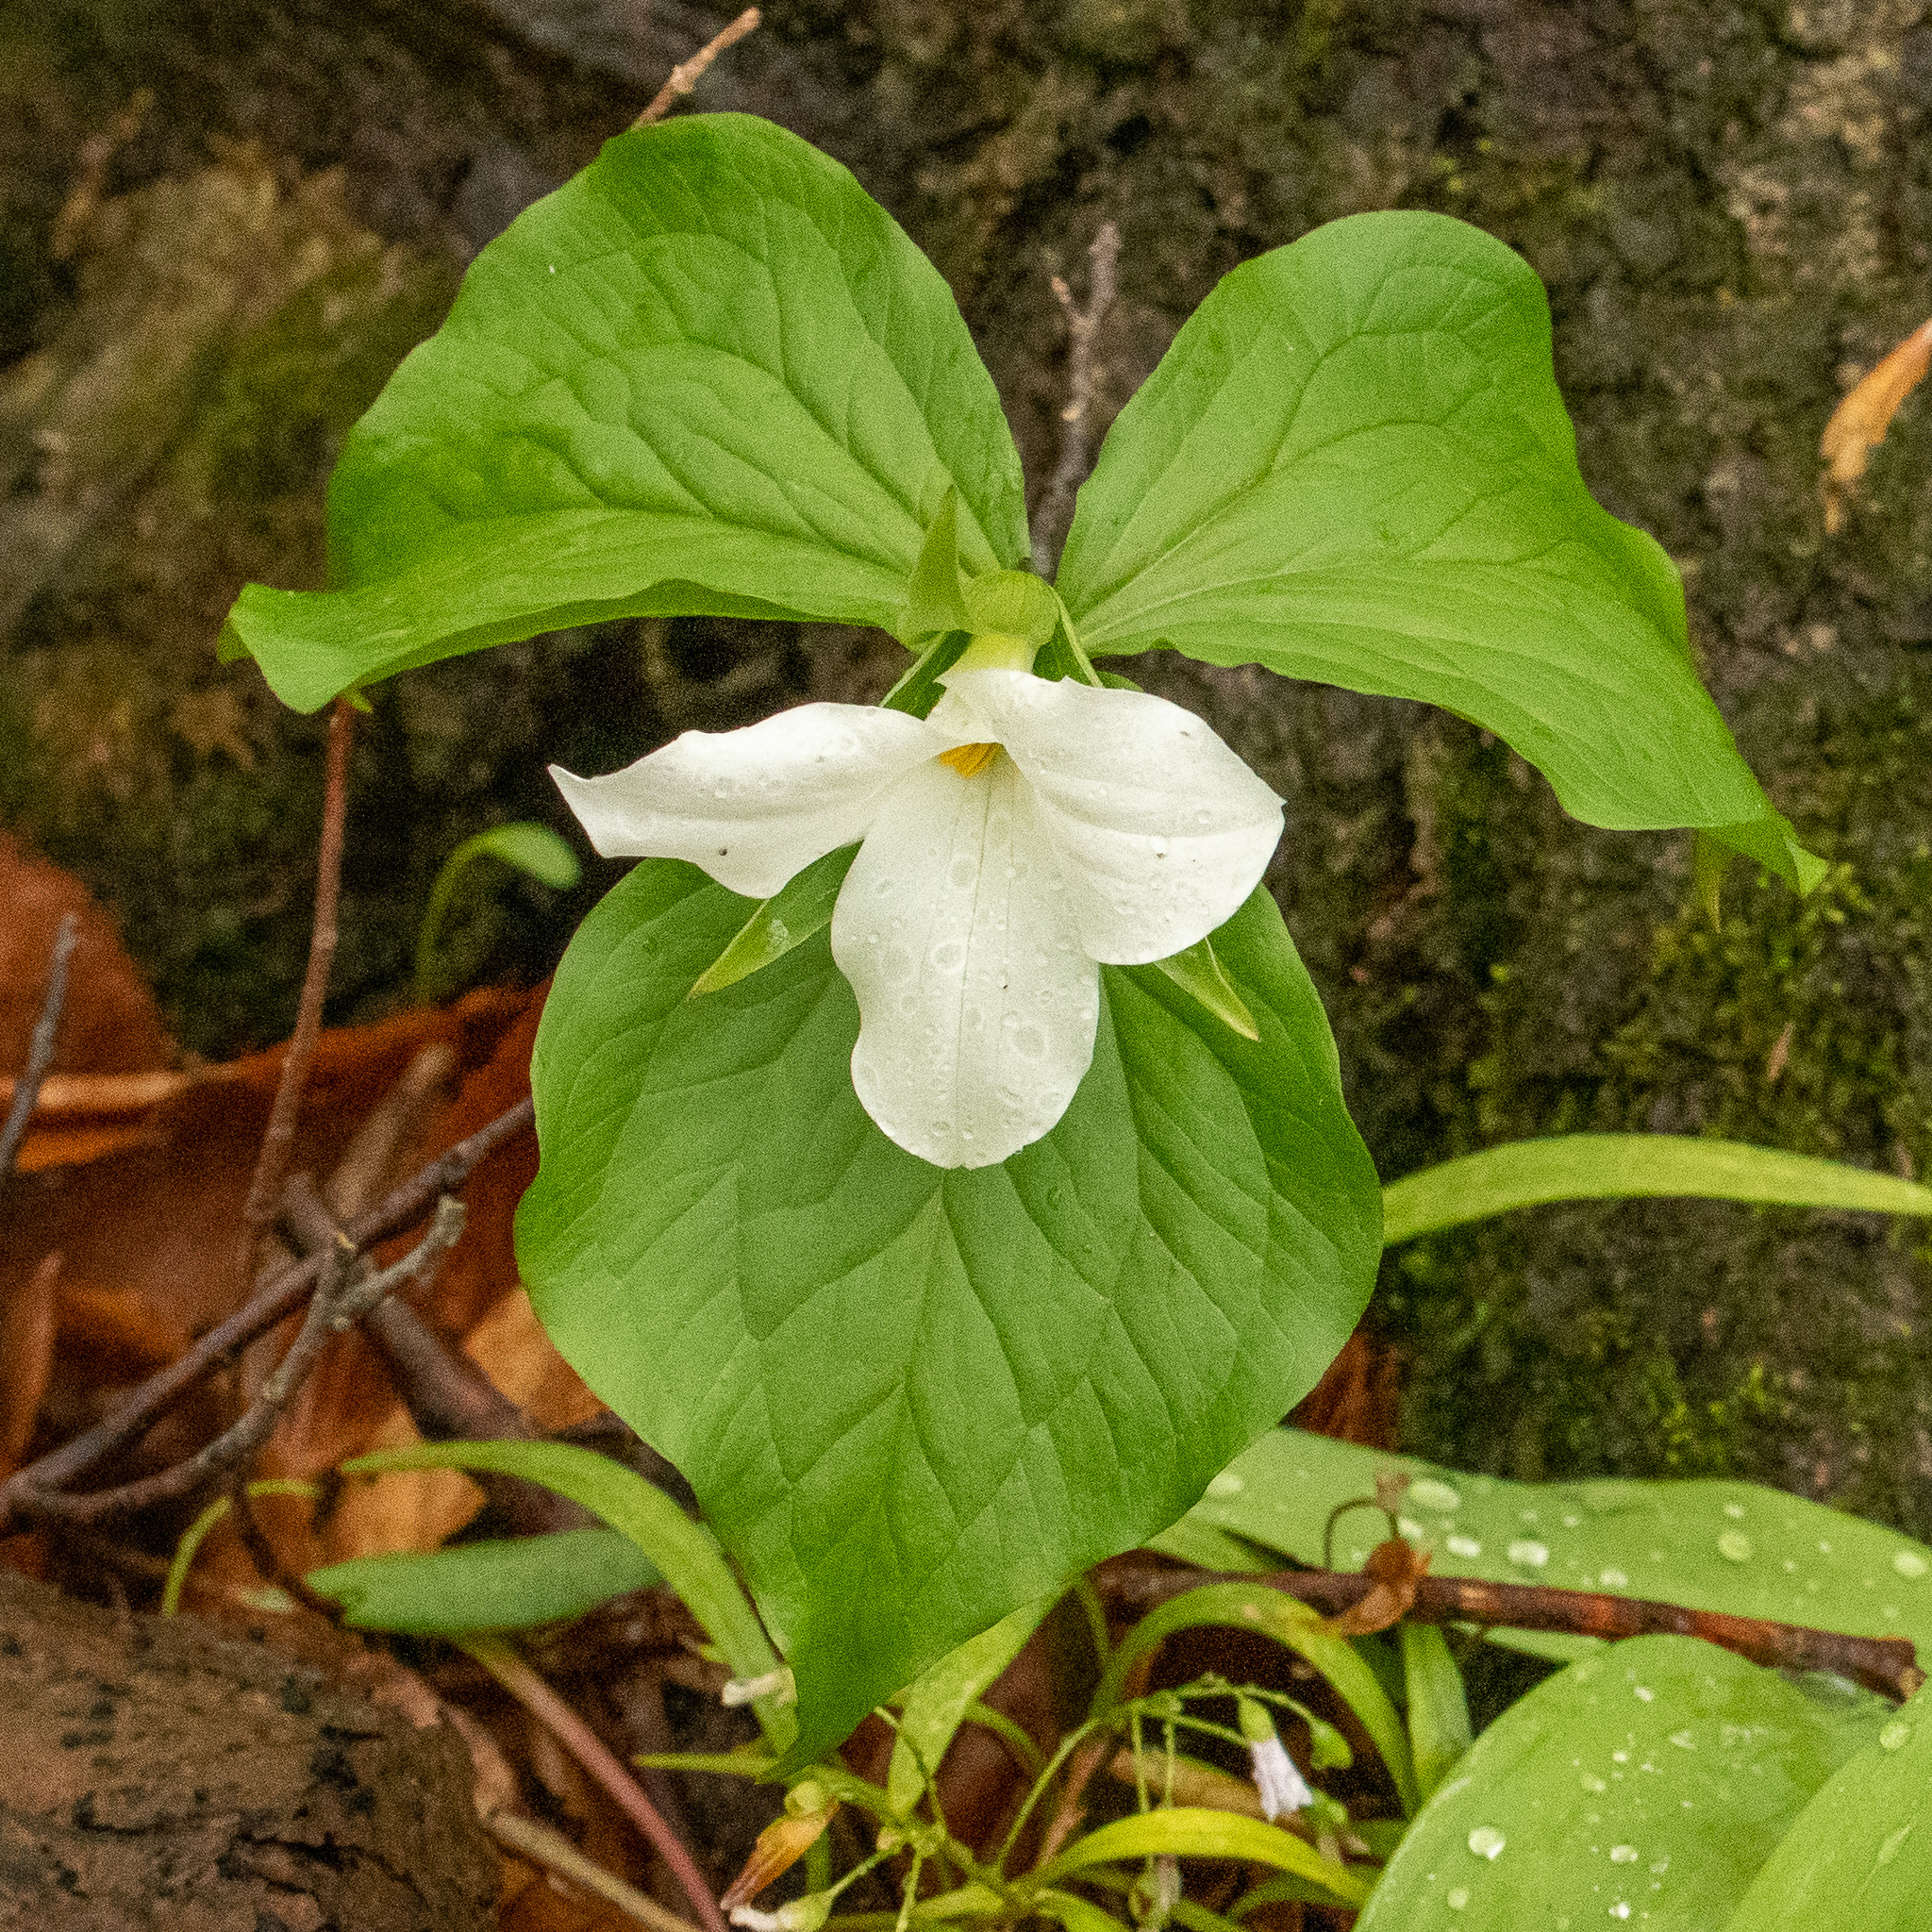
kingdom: Plantae
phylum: Tracheophyta
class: Liliopsida
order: Liliales
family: Melanthiaceae
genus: Trillium
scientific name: Trillium grandiflorum
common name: Great white trillium
